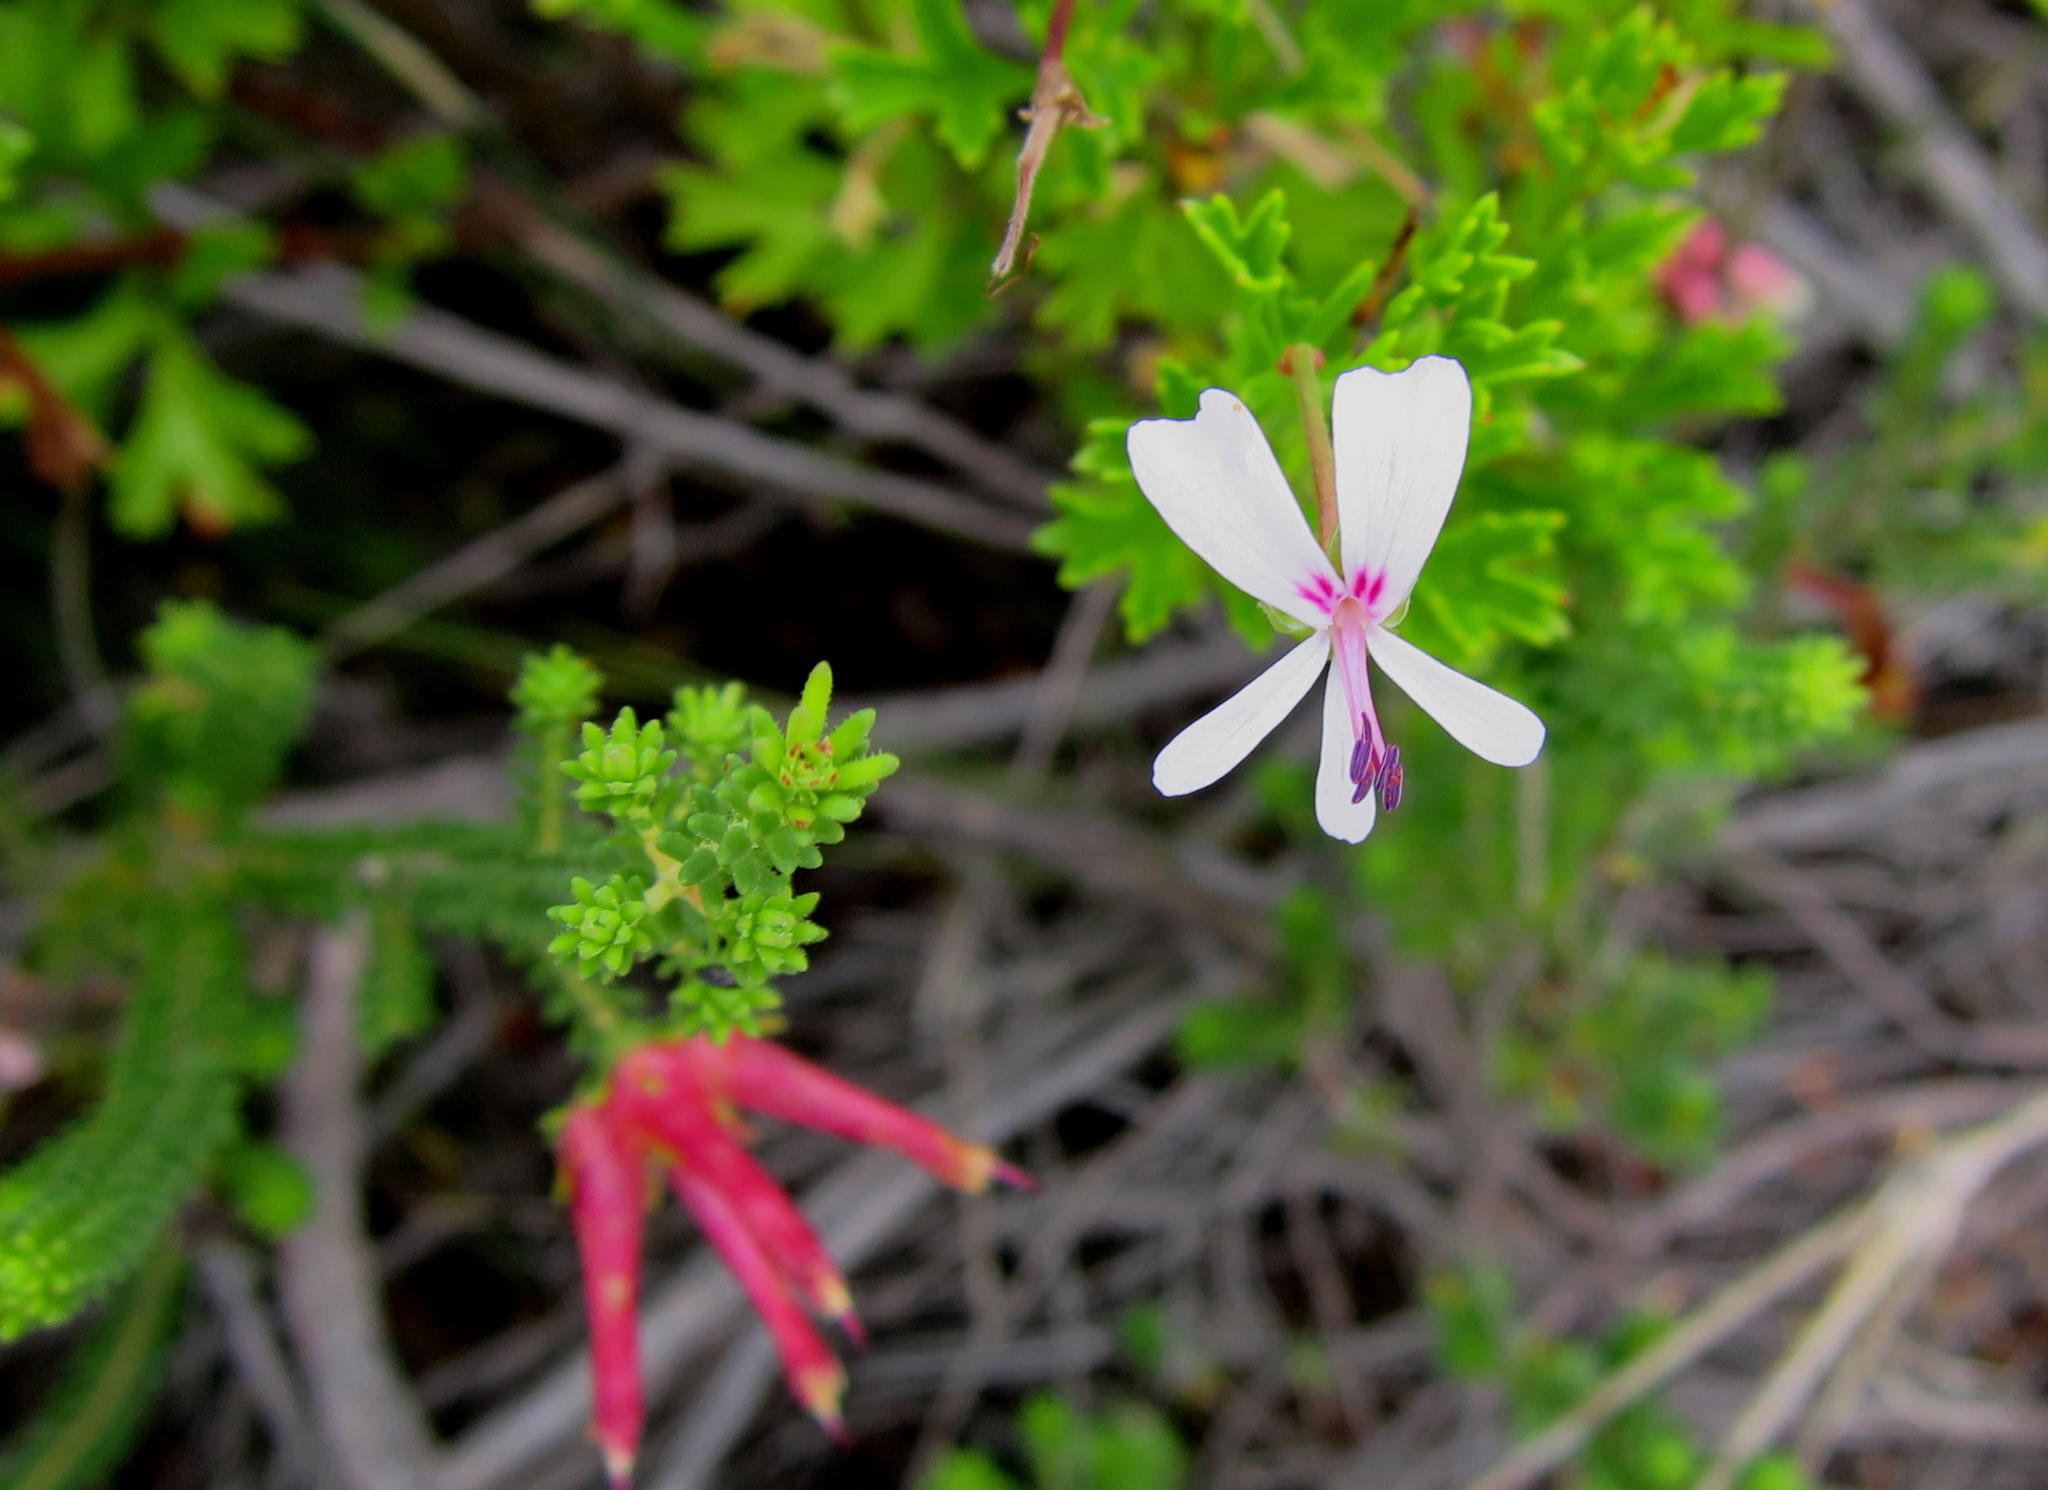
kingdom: Plantae
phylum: Tracheophyta
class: Magnoliopsida
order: Geraniales
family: Geraniaceae
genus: Pelargonium
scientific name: Pelargonium ternatum
